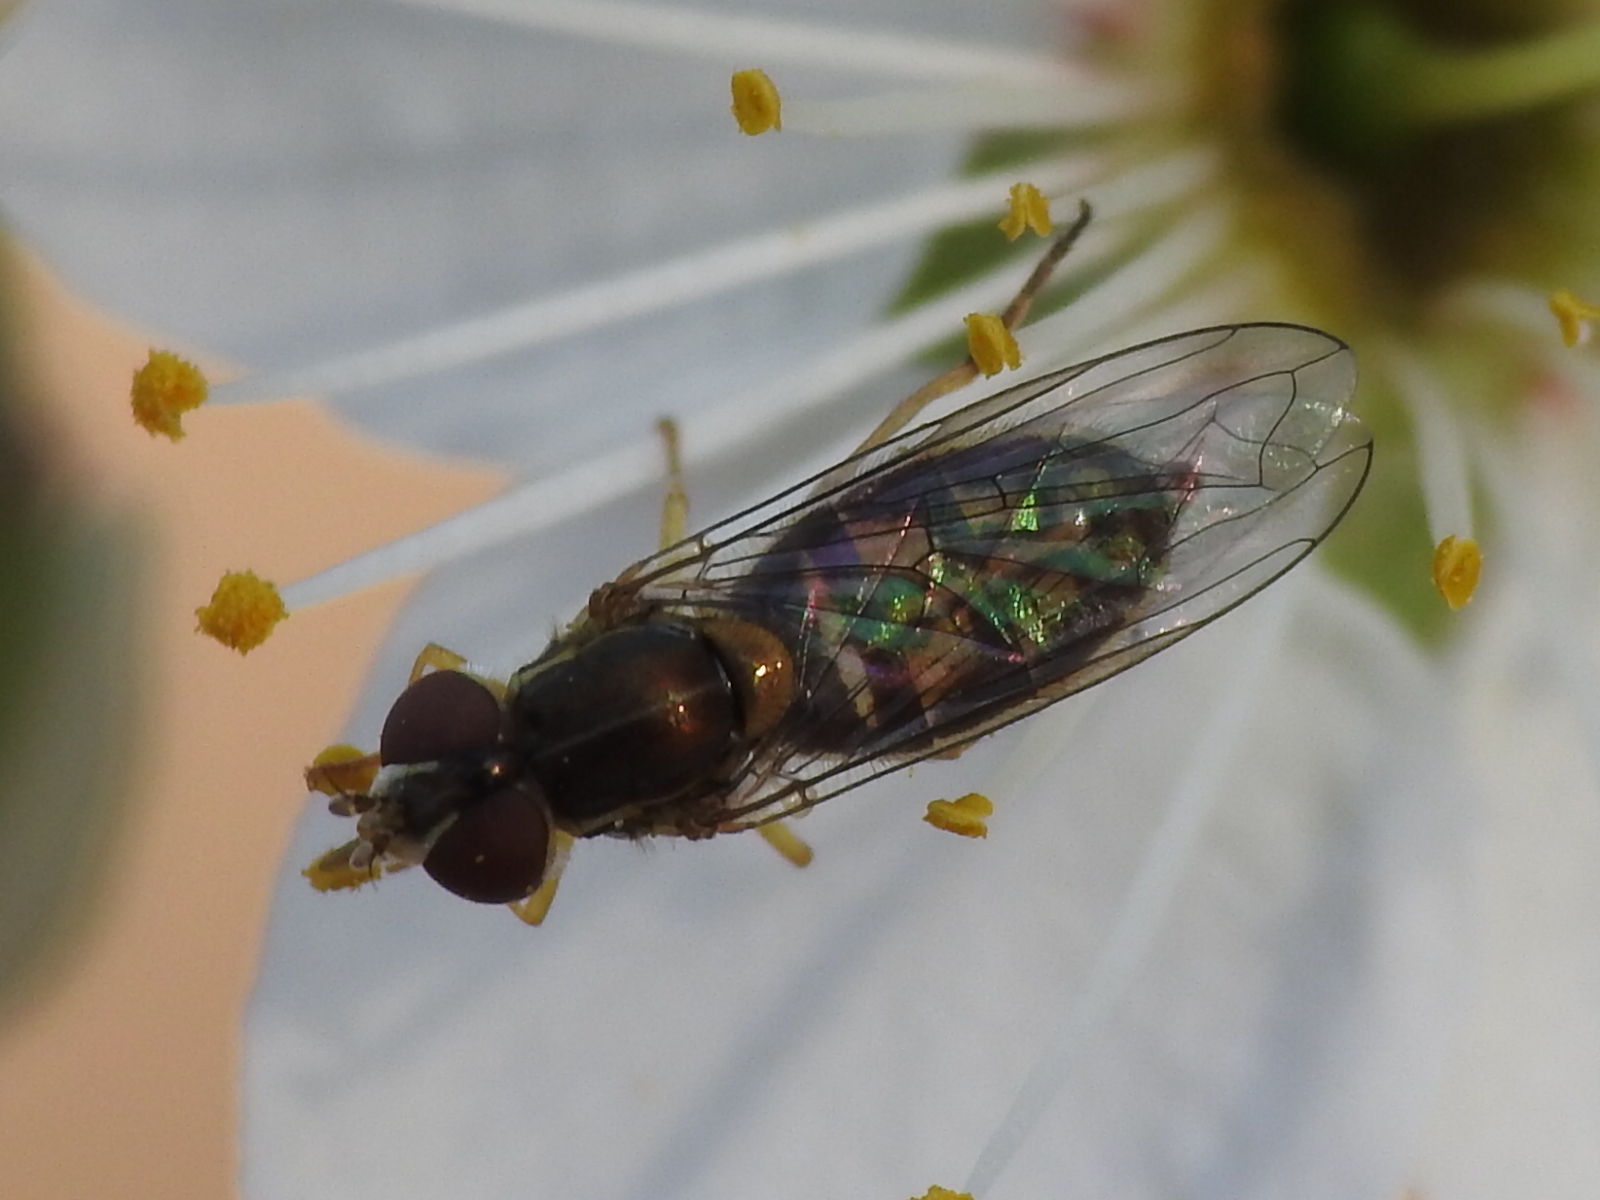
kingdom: Animalia
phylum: Arthropoda
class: Insecta
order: Diptera
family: Syrphidae
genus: Toxomerus
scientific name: Toxomerus marginatus
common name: Syrphid fly
